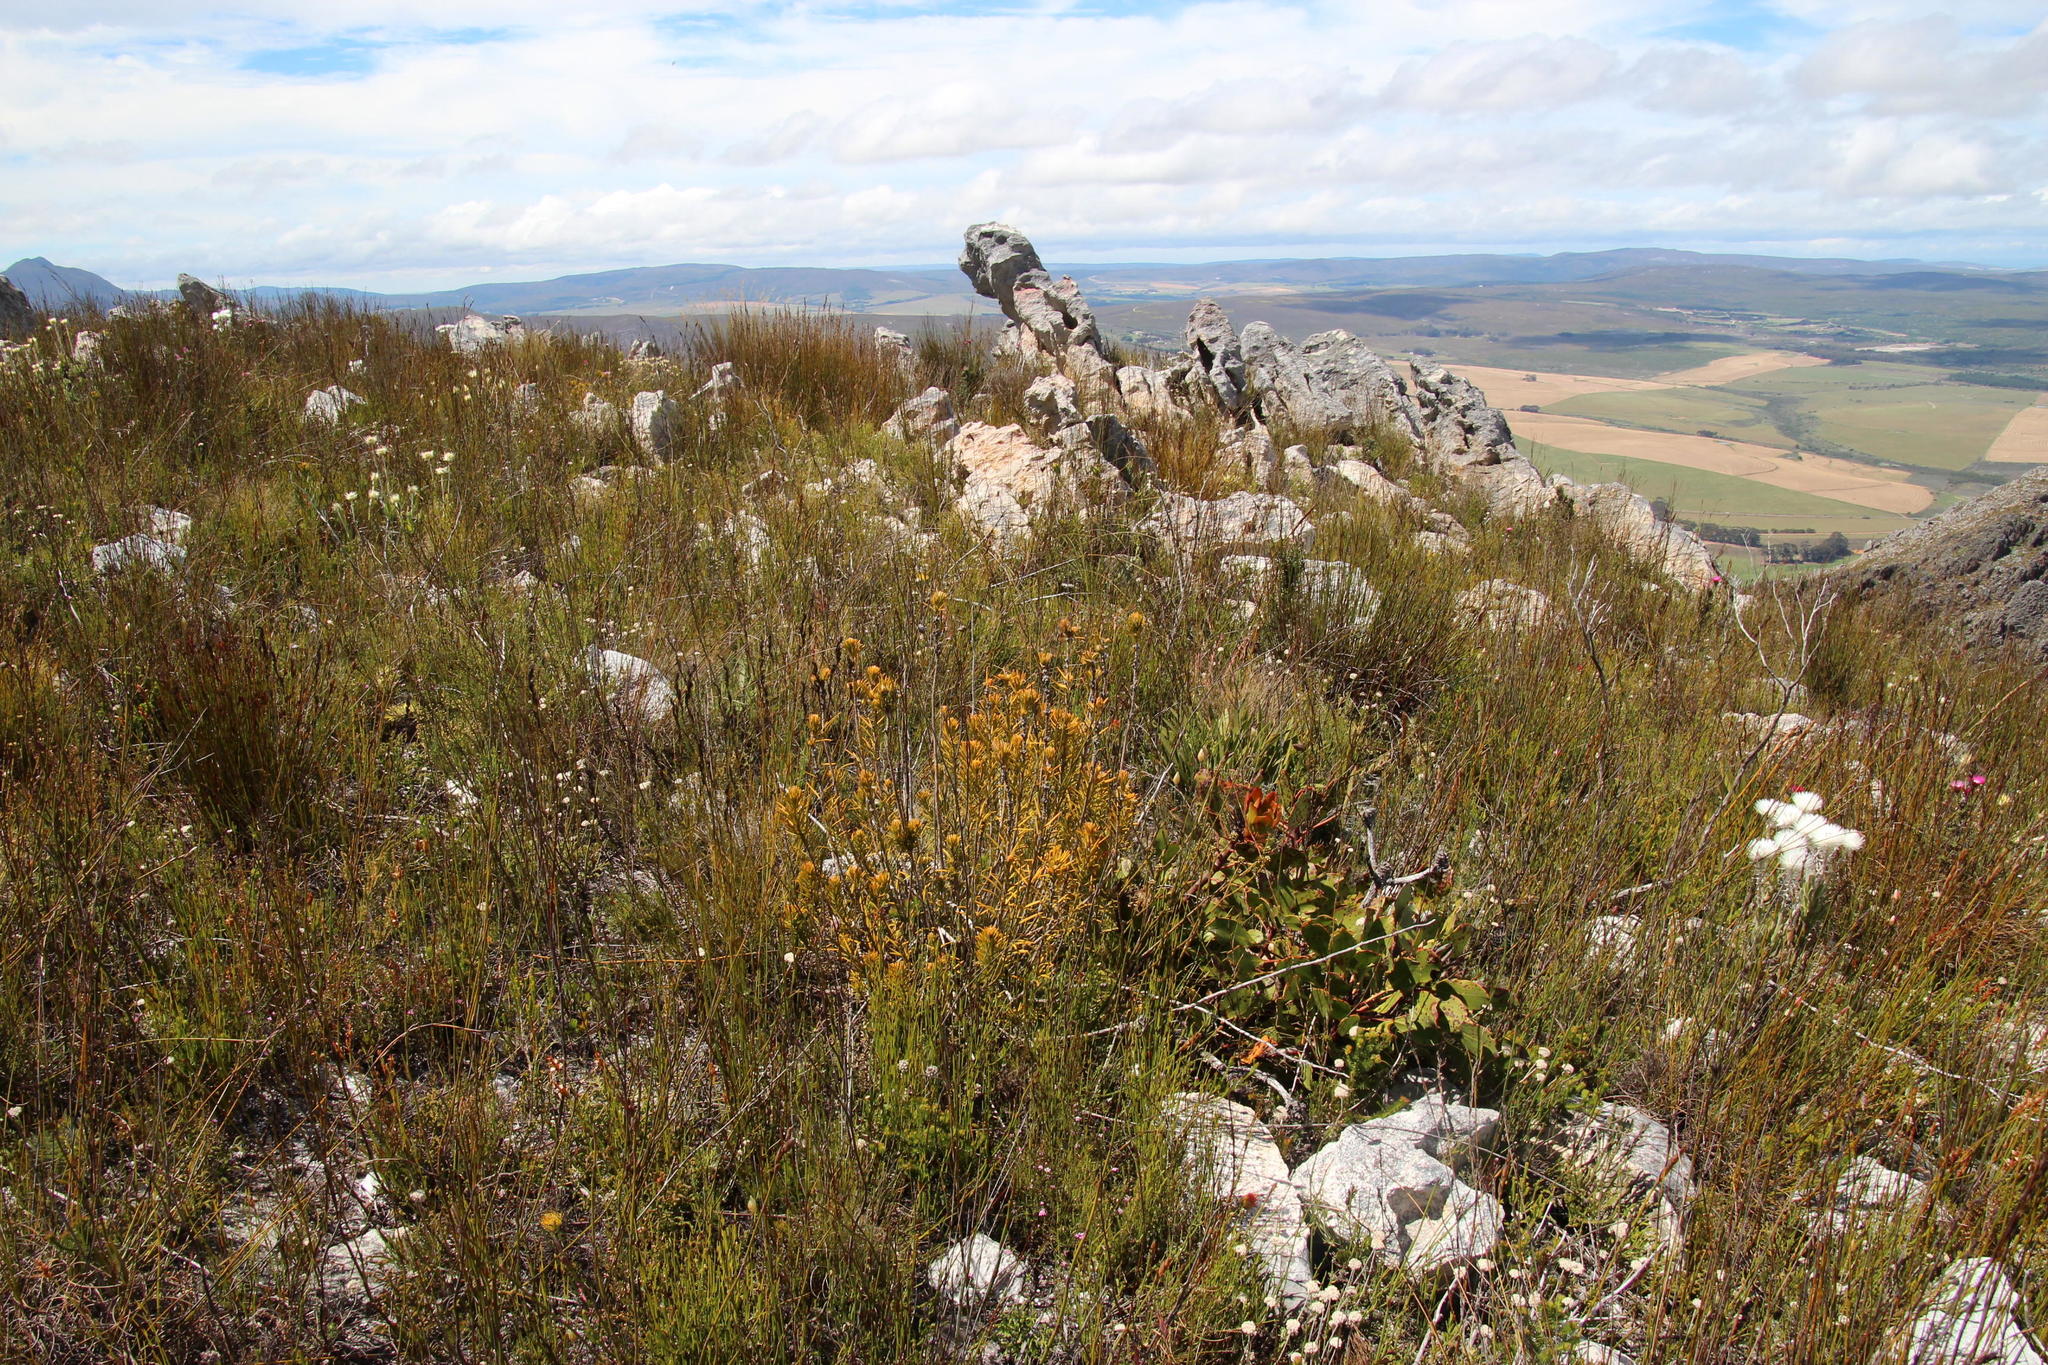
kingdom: Plantae
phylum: Tracheophyta
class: Magnoliopsida
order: Lamiales
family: Stilbaceae
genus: Retzia
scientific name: Retzia capensis
